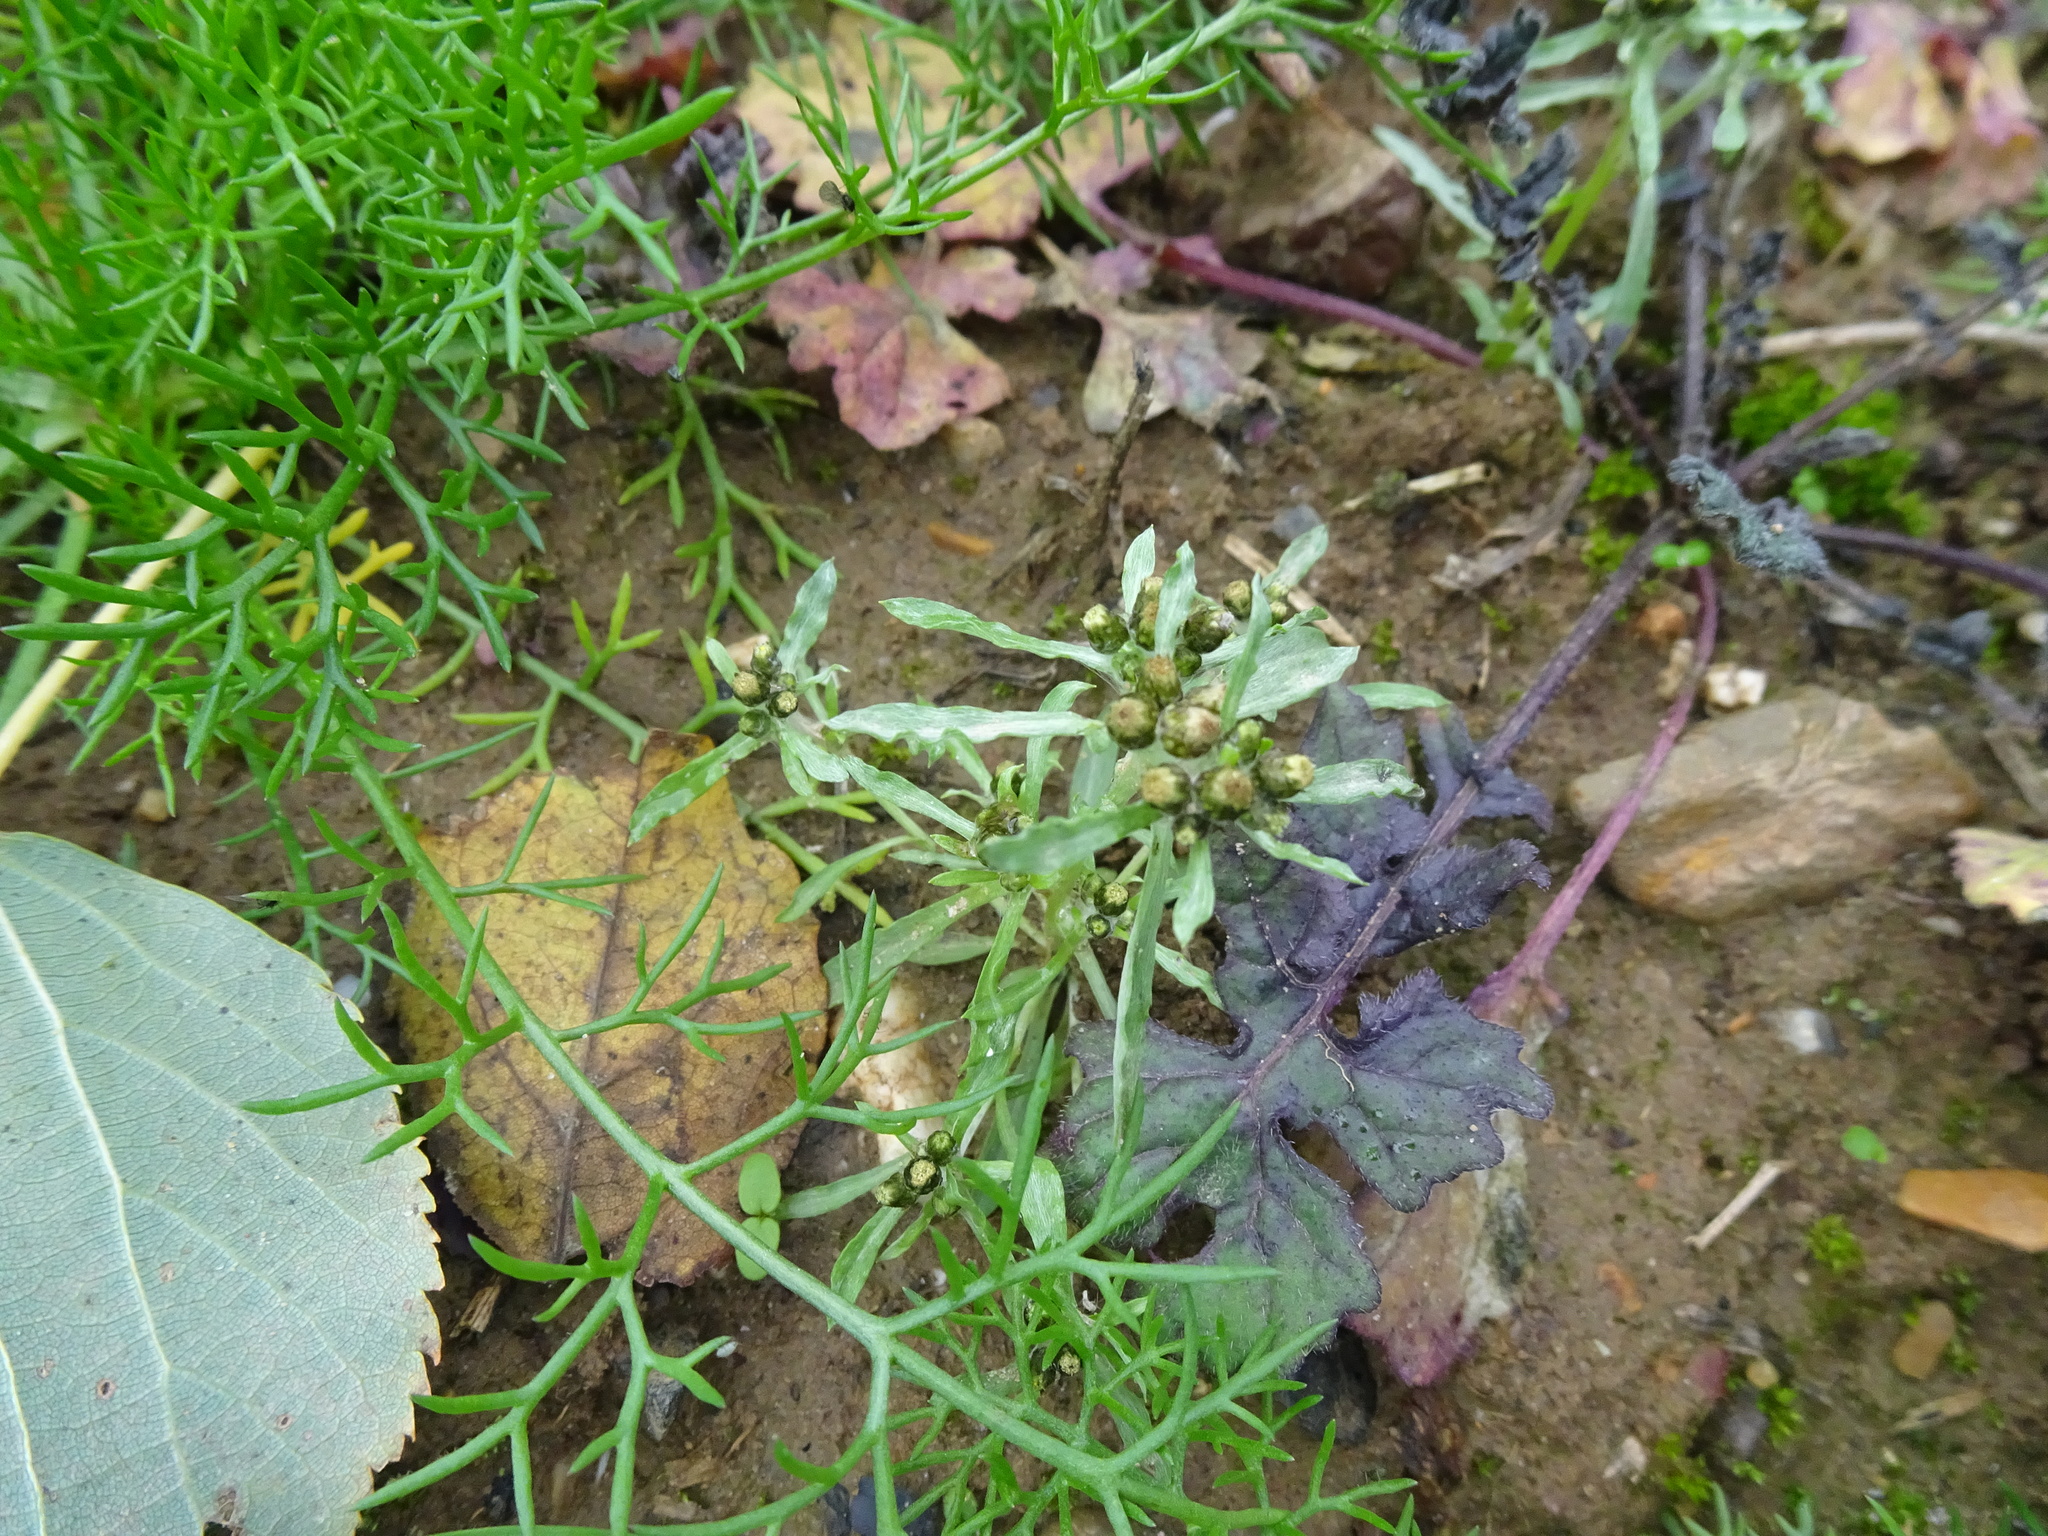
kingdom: Plantae
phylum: Tracheophyta
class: Magnoliopsida
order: Asterales
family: Asteraceae
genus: Gnaphalium
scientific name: Gnaphalium uliginosum
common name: Marsh cudweed
